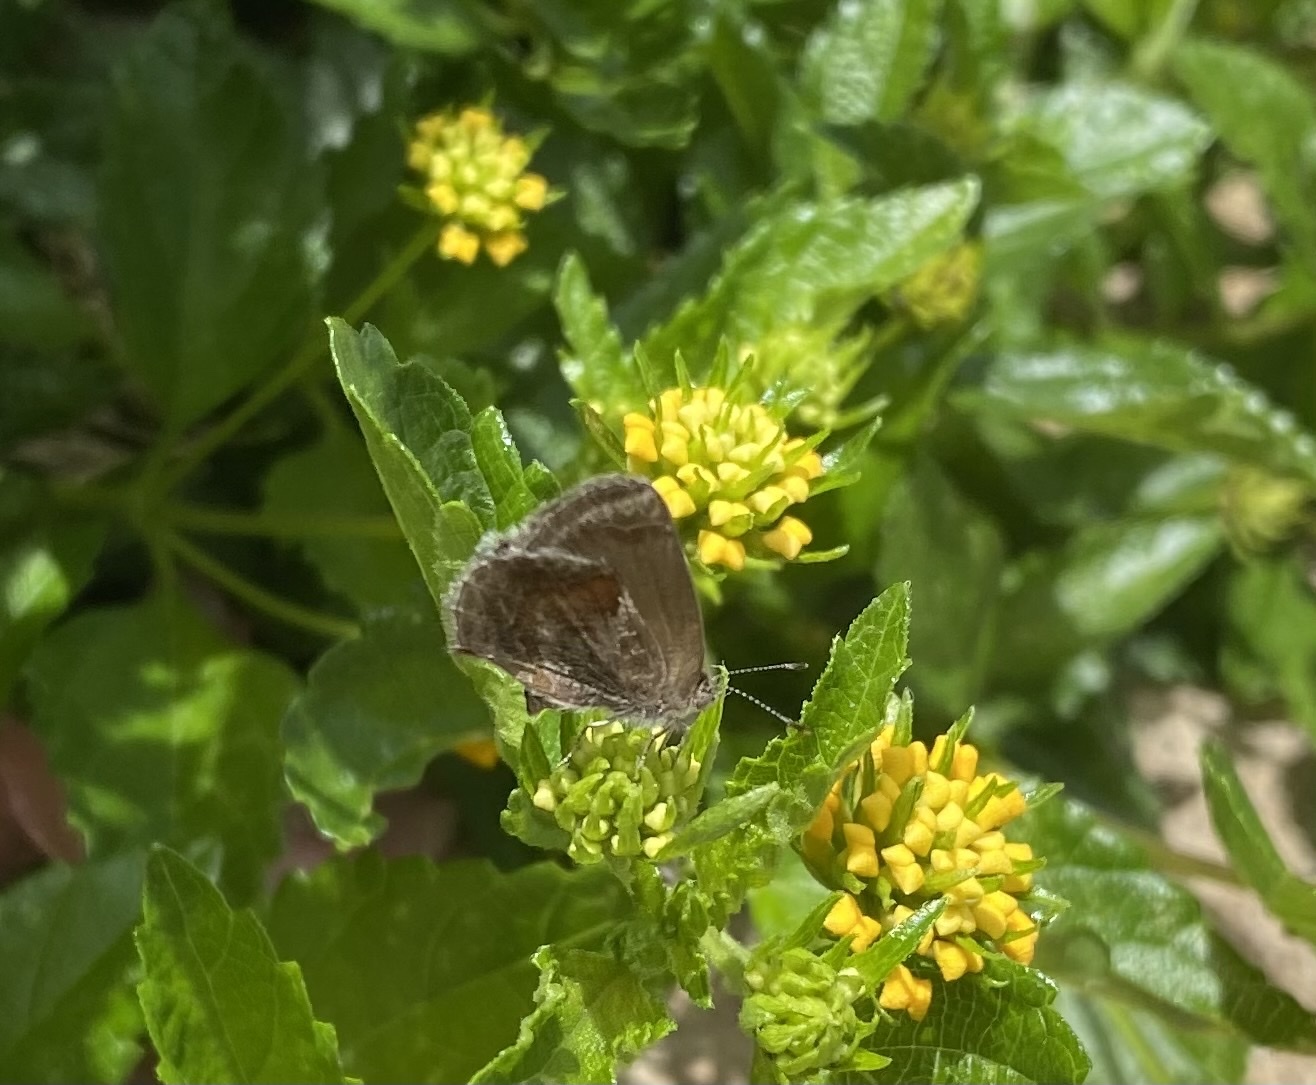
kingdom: Animalia
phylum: Arthropoda
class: Insecta
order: Lepidoptera
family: Lycaenidae
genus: Strymon
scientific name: Strymon bazochii
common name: Lantana scrub-hairstreak
